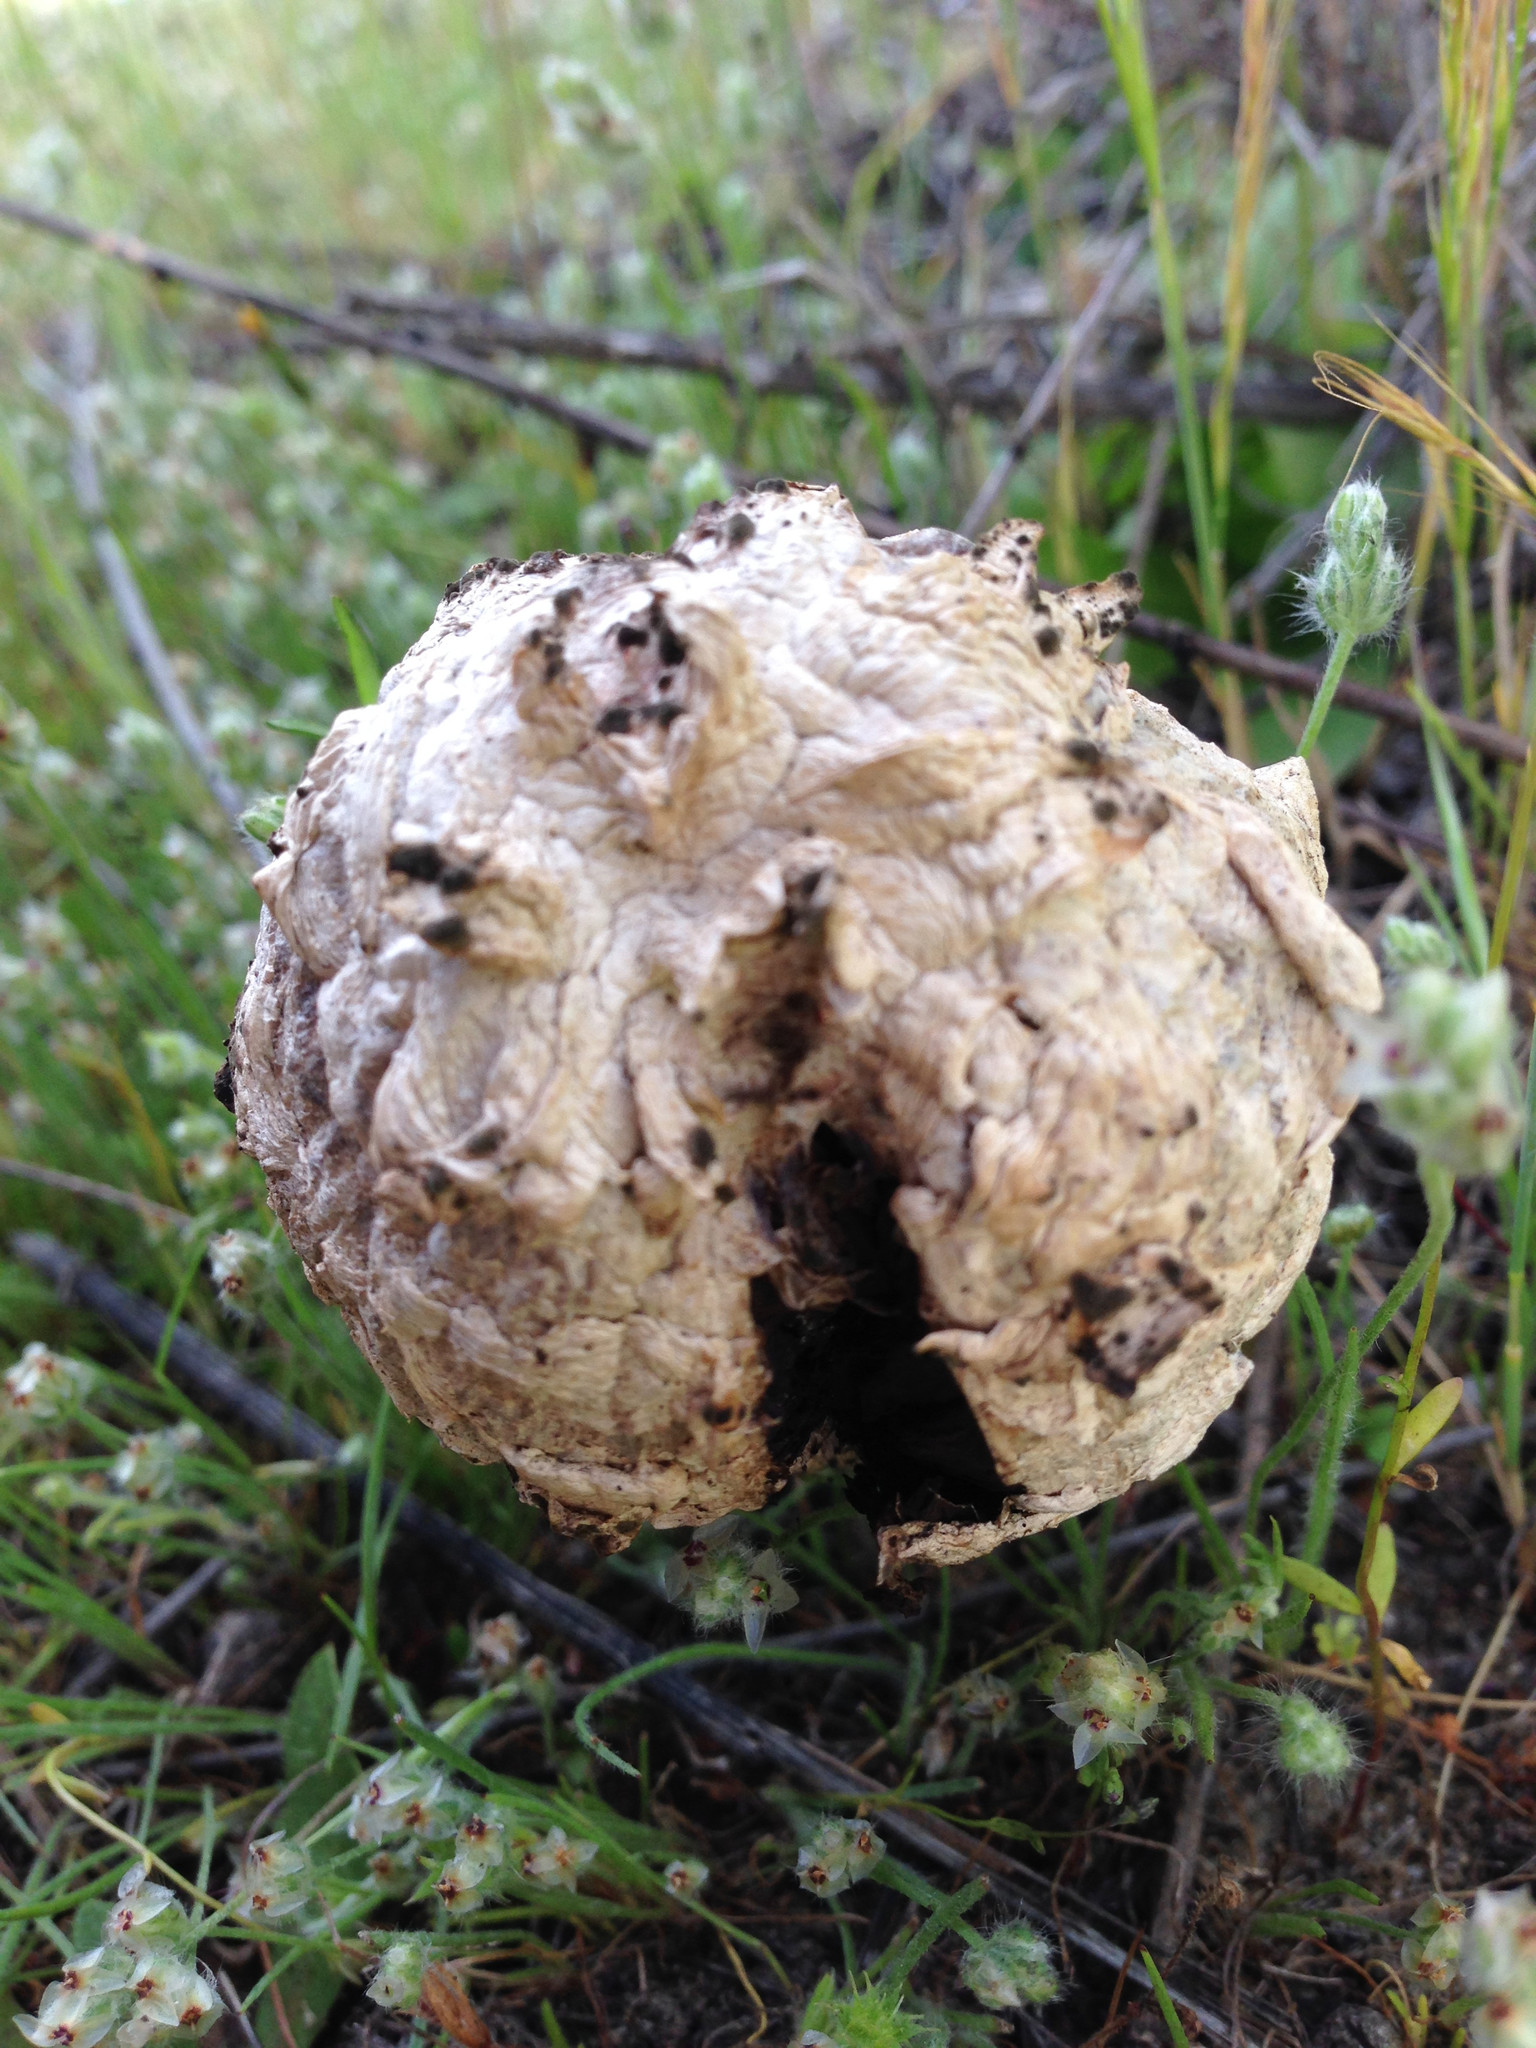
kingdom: Fungi
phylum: Basidiomycota
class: Agaricomycetes
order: Agaricales
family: Agaricaceae
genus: Agaricus
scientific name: Agaricus deserticola
